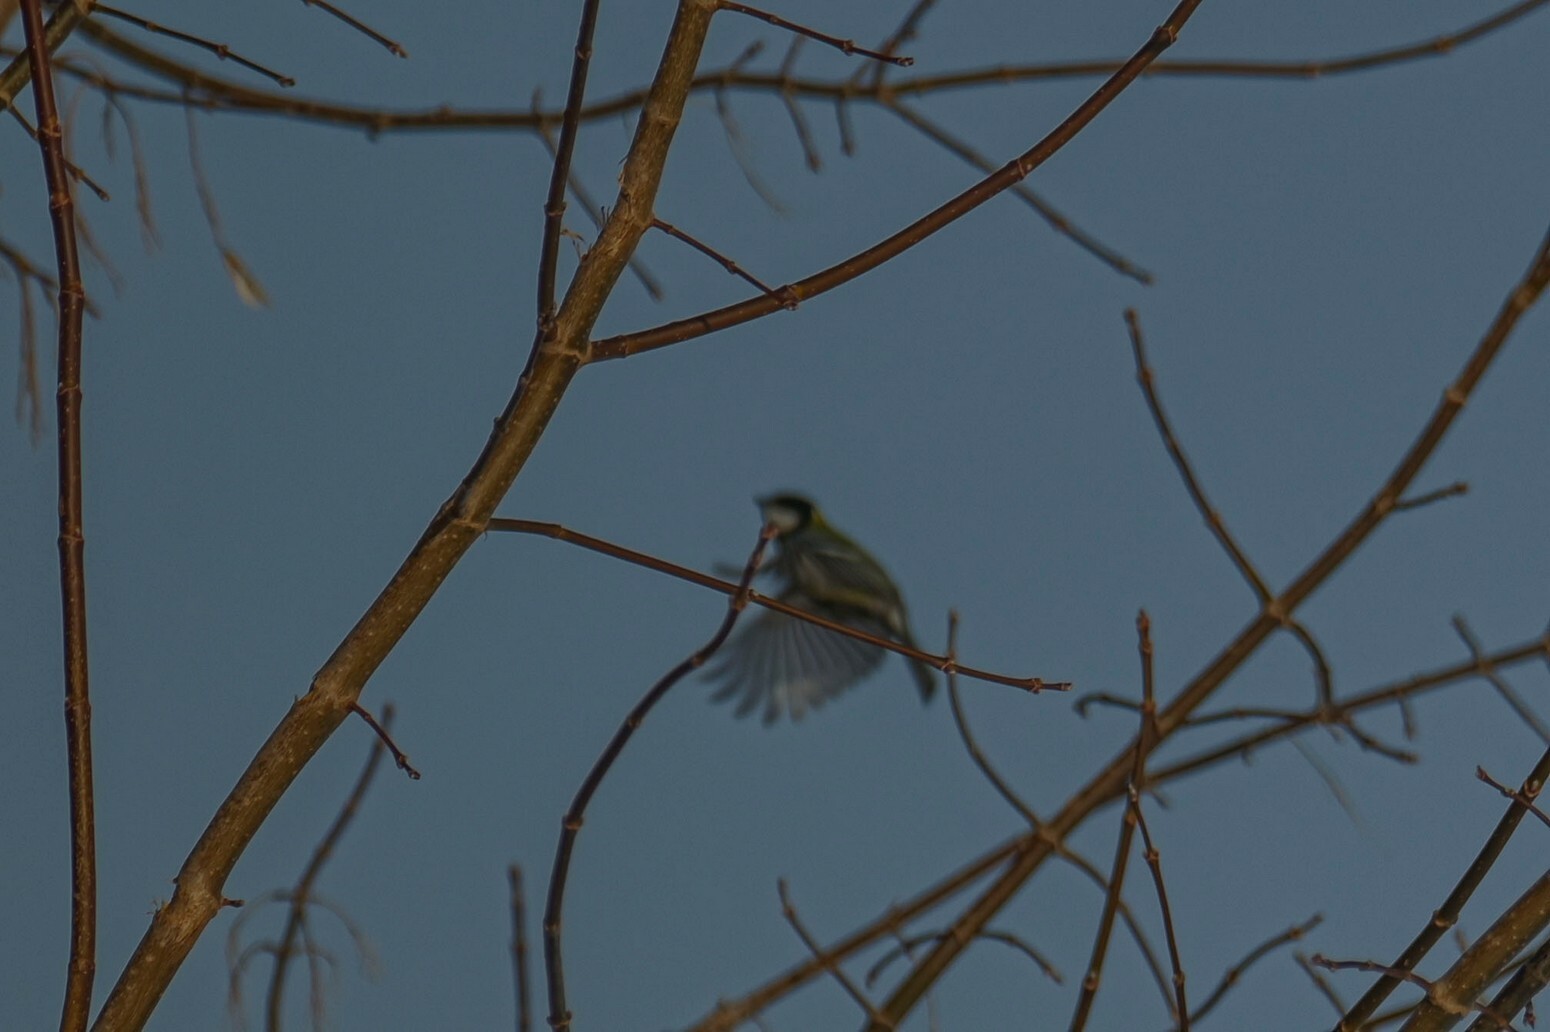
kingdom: Animalia
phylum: Chordata
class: Aves
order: Passeriformes
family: Paridae
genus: Parus
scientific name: Parus major
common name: Great tit
